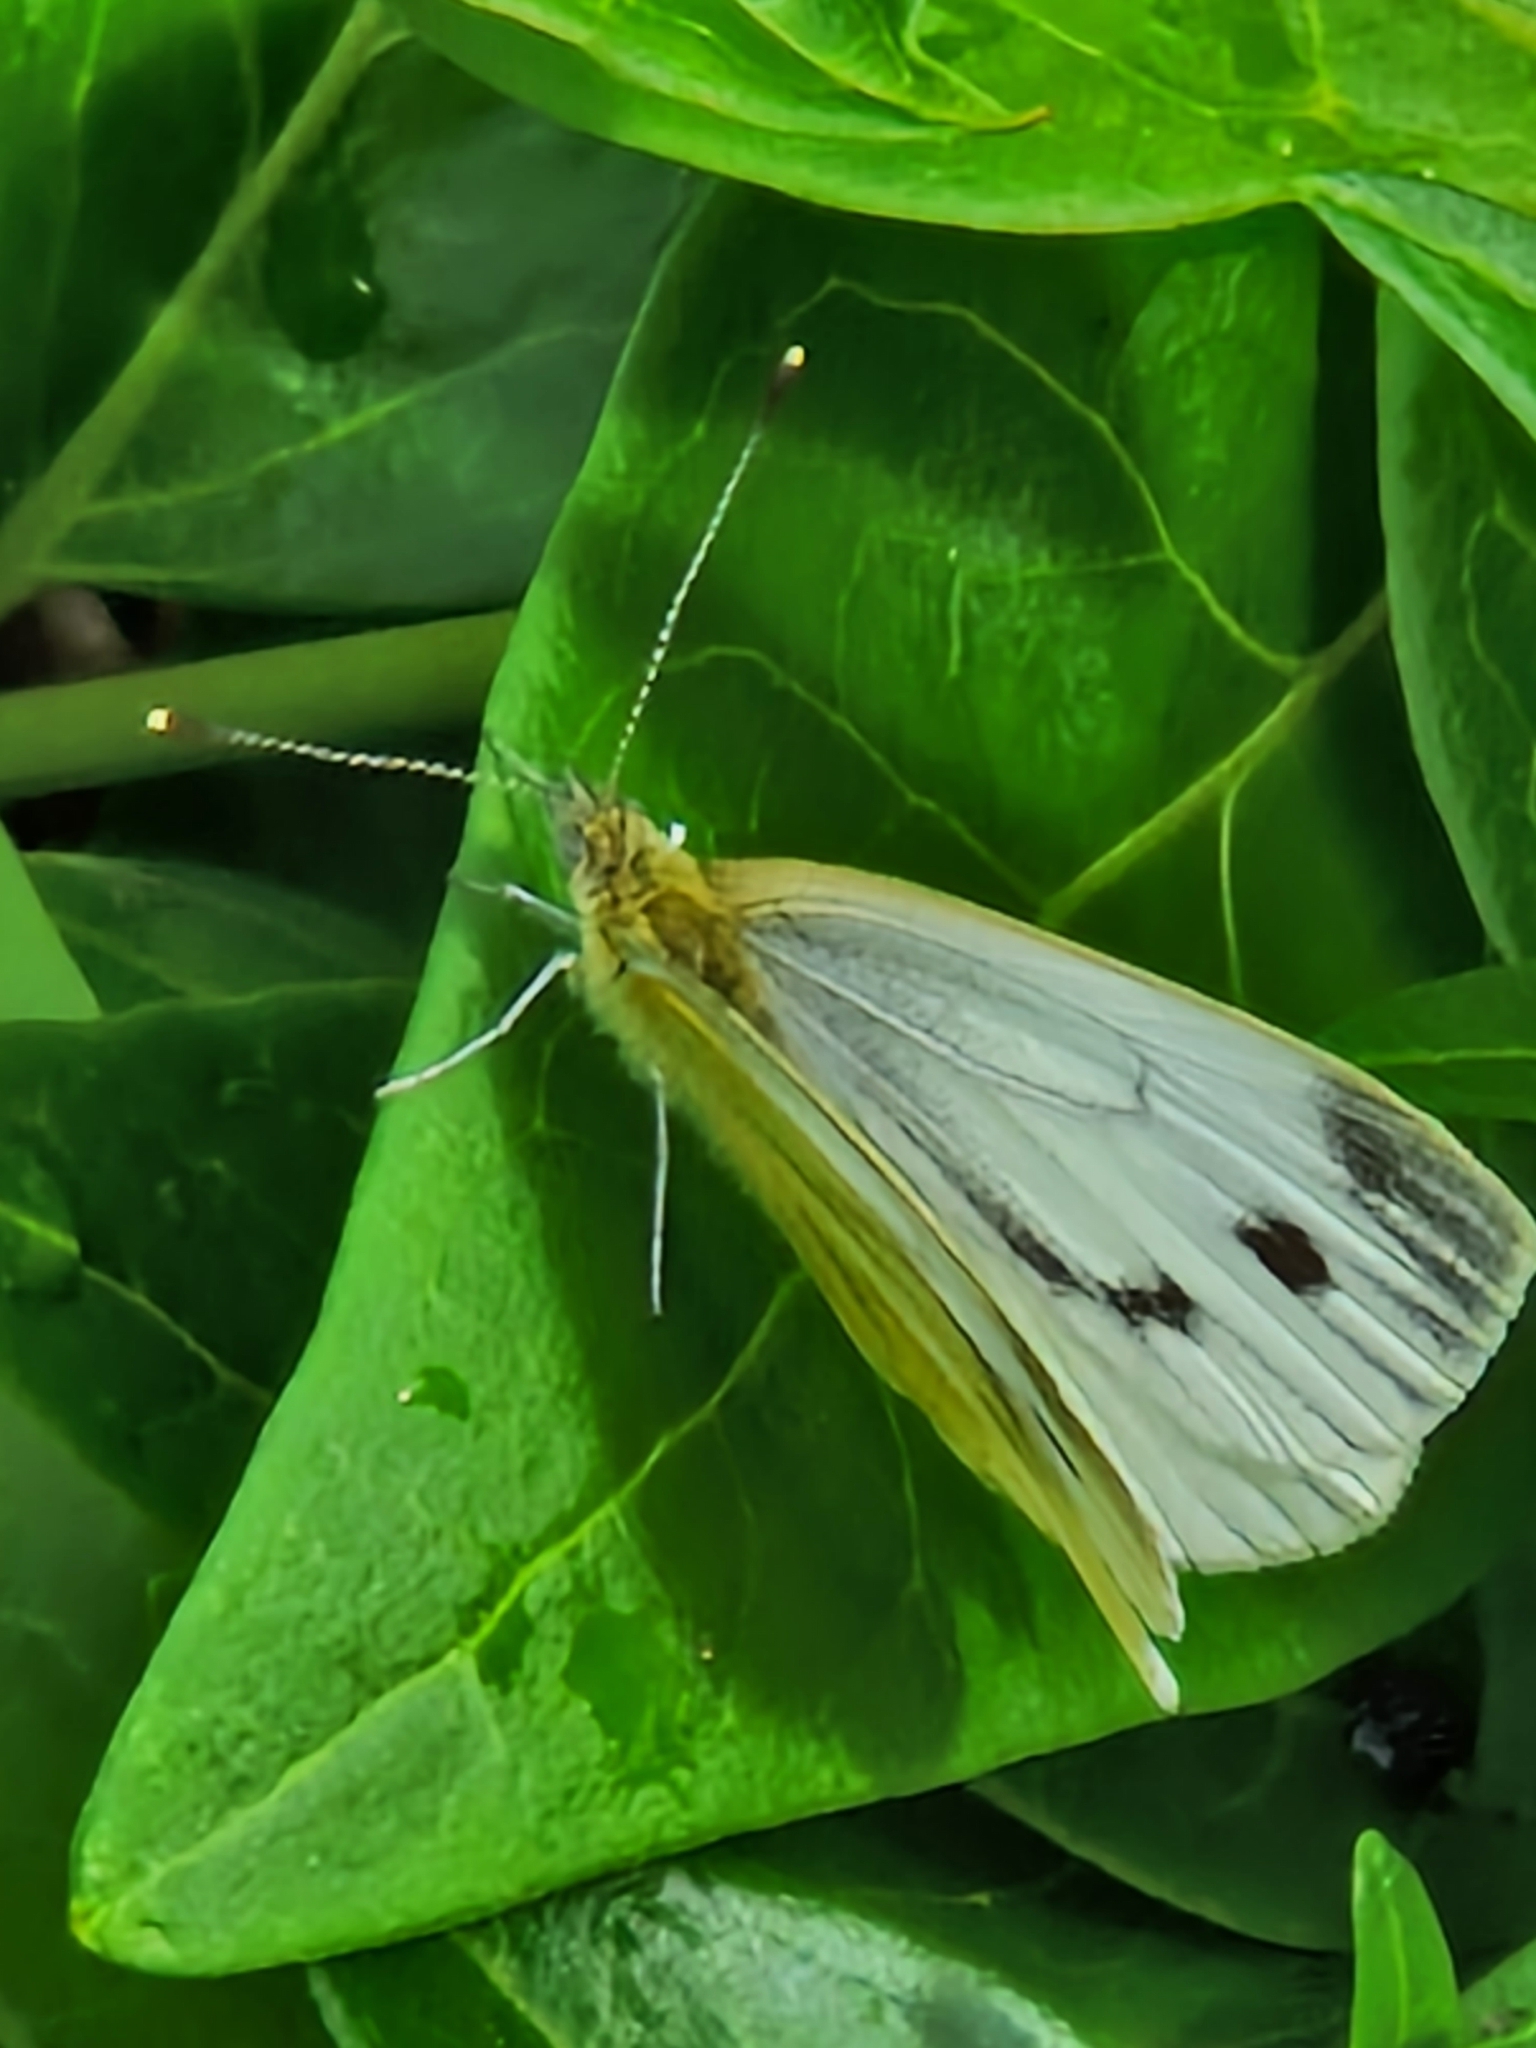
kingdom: Animalia
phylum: Arthropoda
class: Insecta
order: Lepidoptera
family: Pieridae
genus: Pieris
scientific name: Pieris napi
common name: Green-veined white
